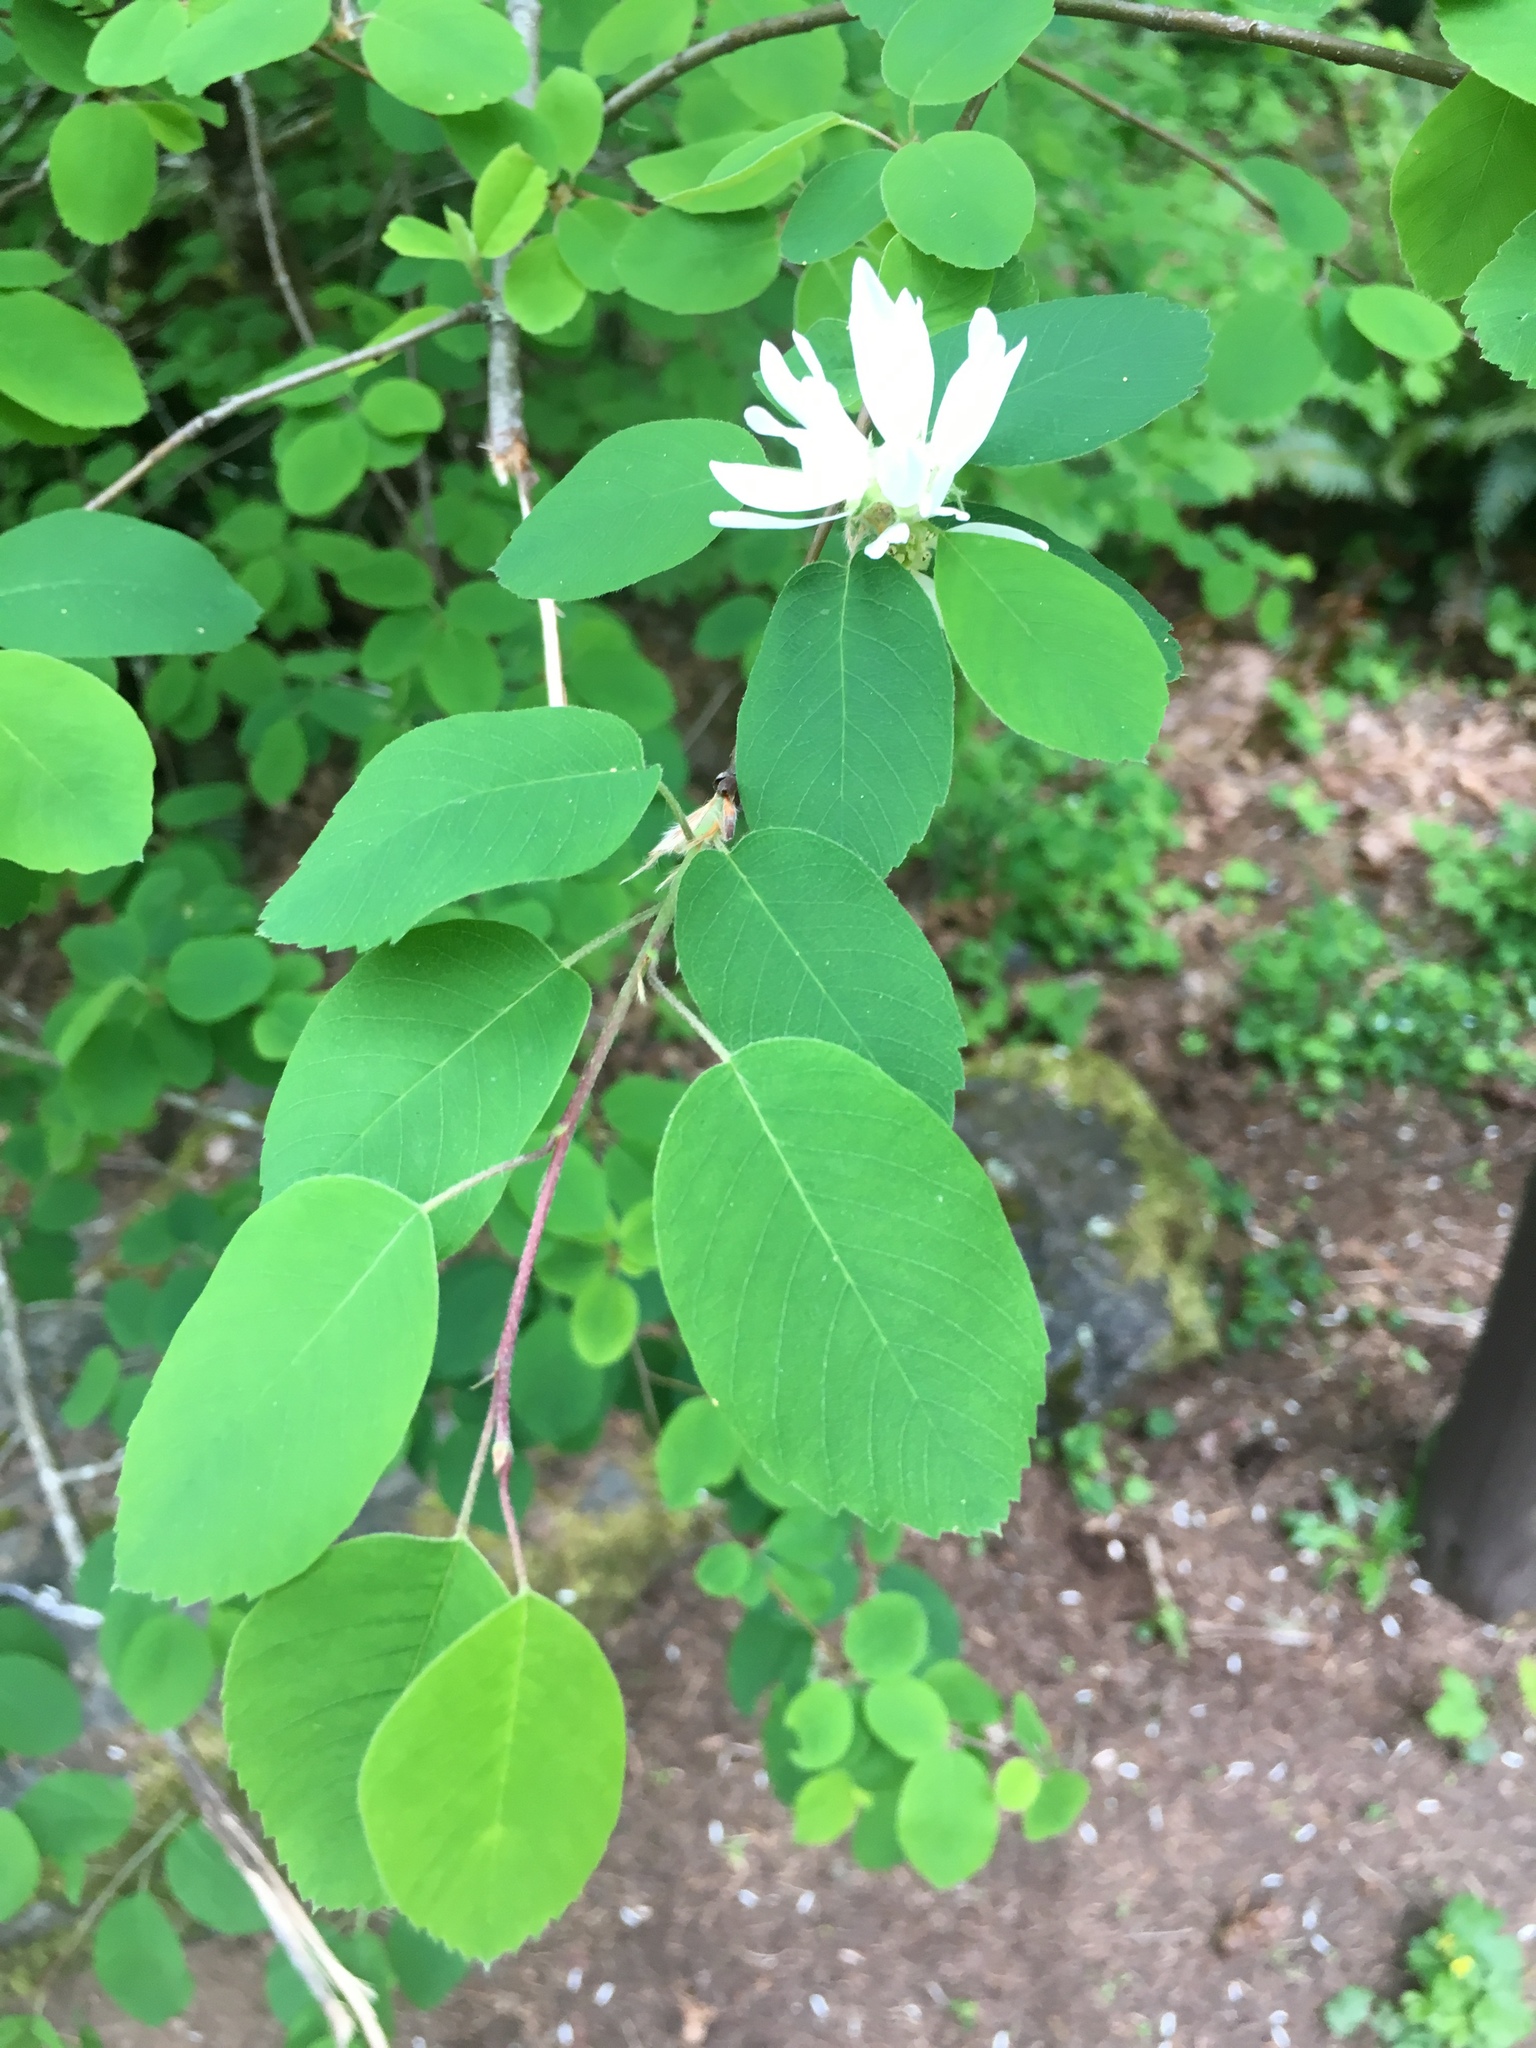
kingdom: Plantae
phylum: Tracheophyta
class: Magnoliopsida
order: Rosales
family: Rosaceae
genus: Amelanchier
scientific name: Amelanchier alnifolia
